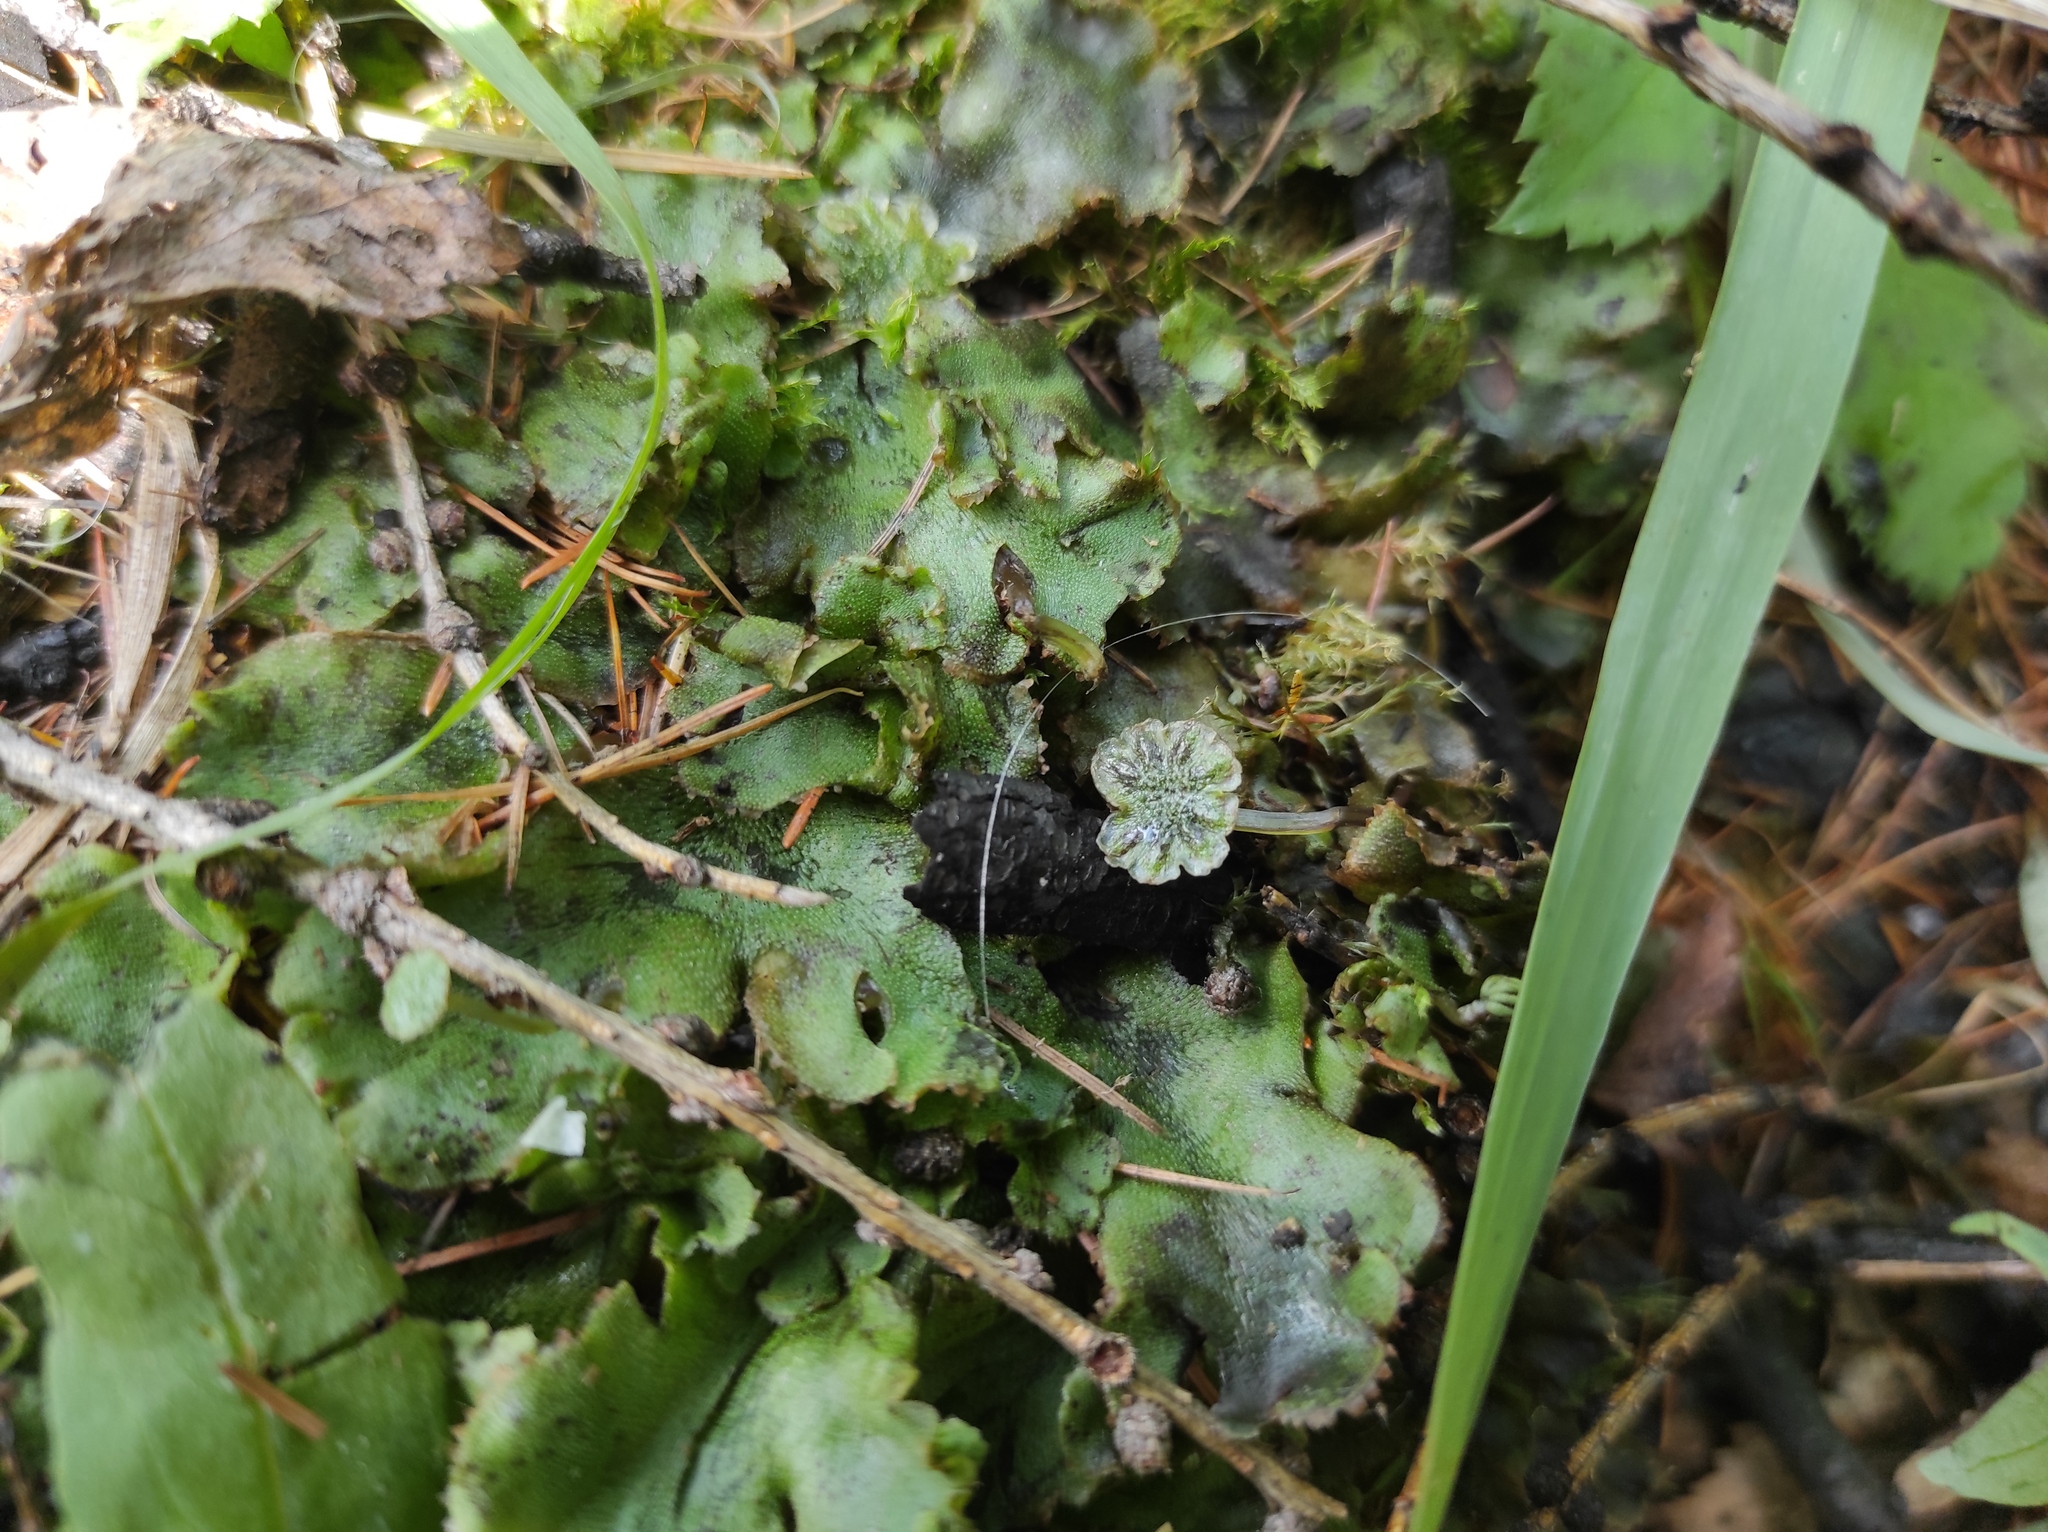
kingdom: Plantae
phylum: Marchantiophyta
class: Marchantiopsida
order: Marchantiales
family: Marchantiaceae
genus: Marchantia
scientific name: Marchantia polymorpha
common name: Common liverwort
